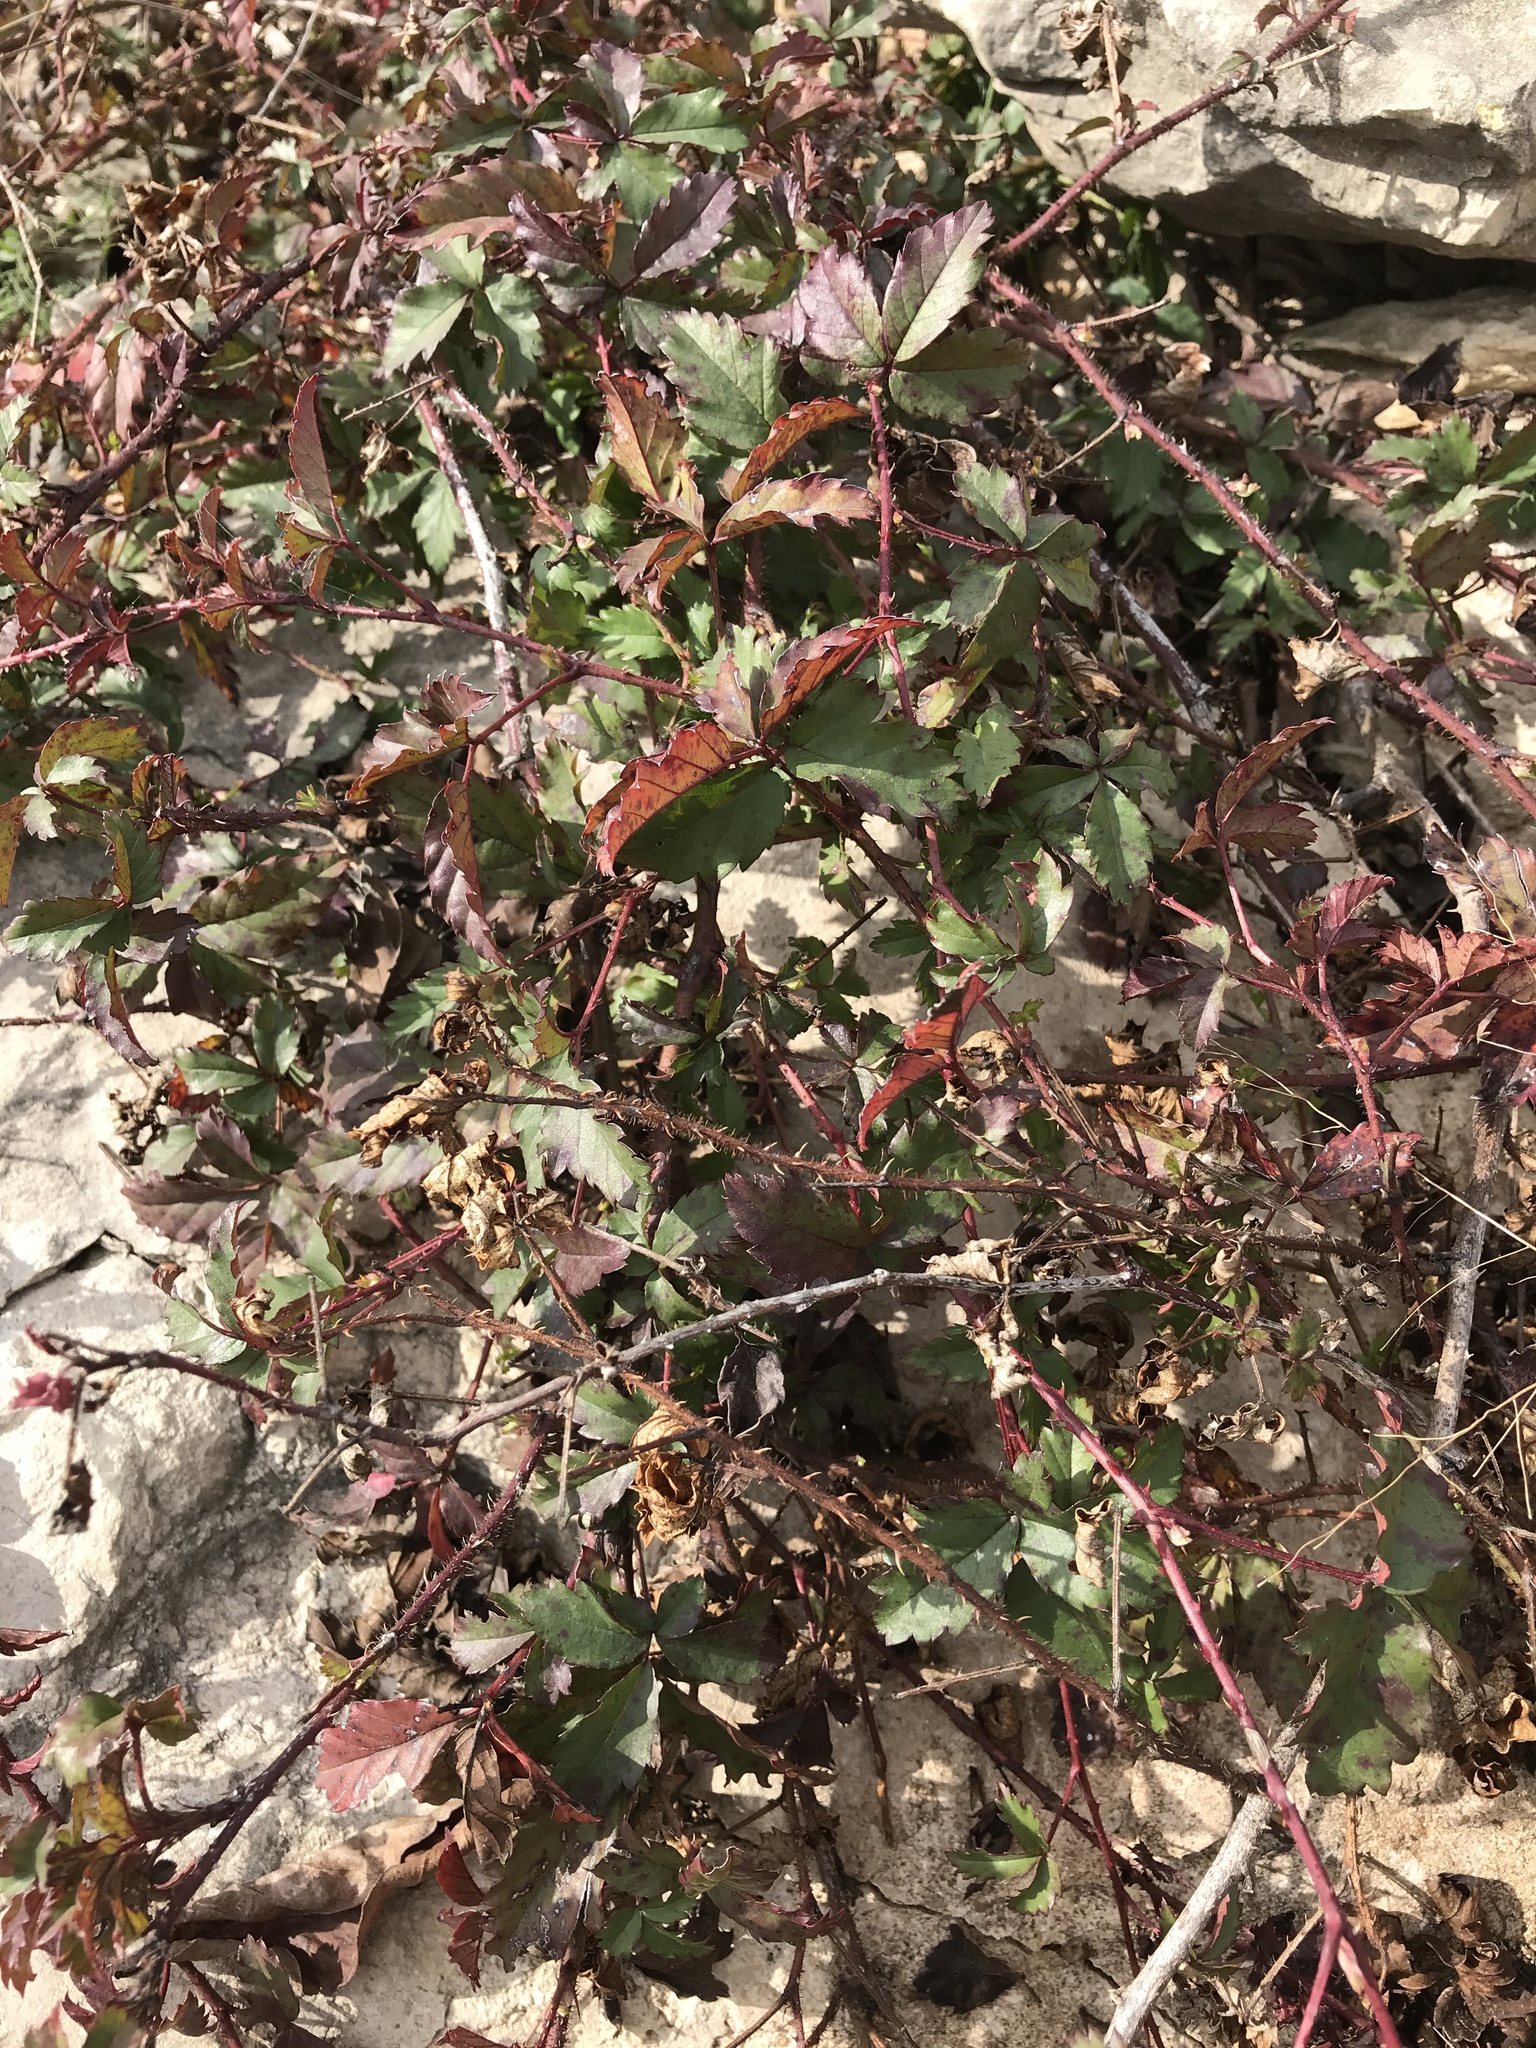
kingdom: Plantae
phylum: Tracheophyta
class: Magnoliopsida
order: Rosales
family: Rosaceae
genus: Rubus
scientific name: Rubus trivialis
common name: Southern dewberry
